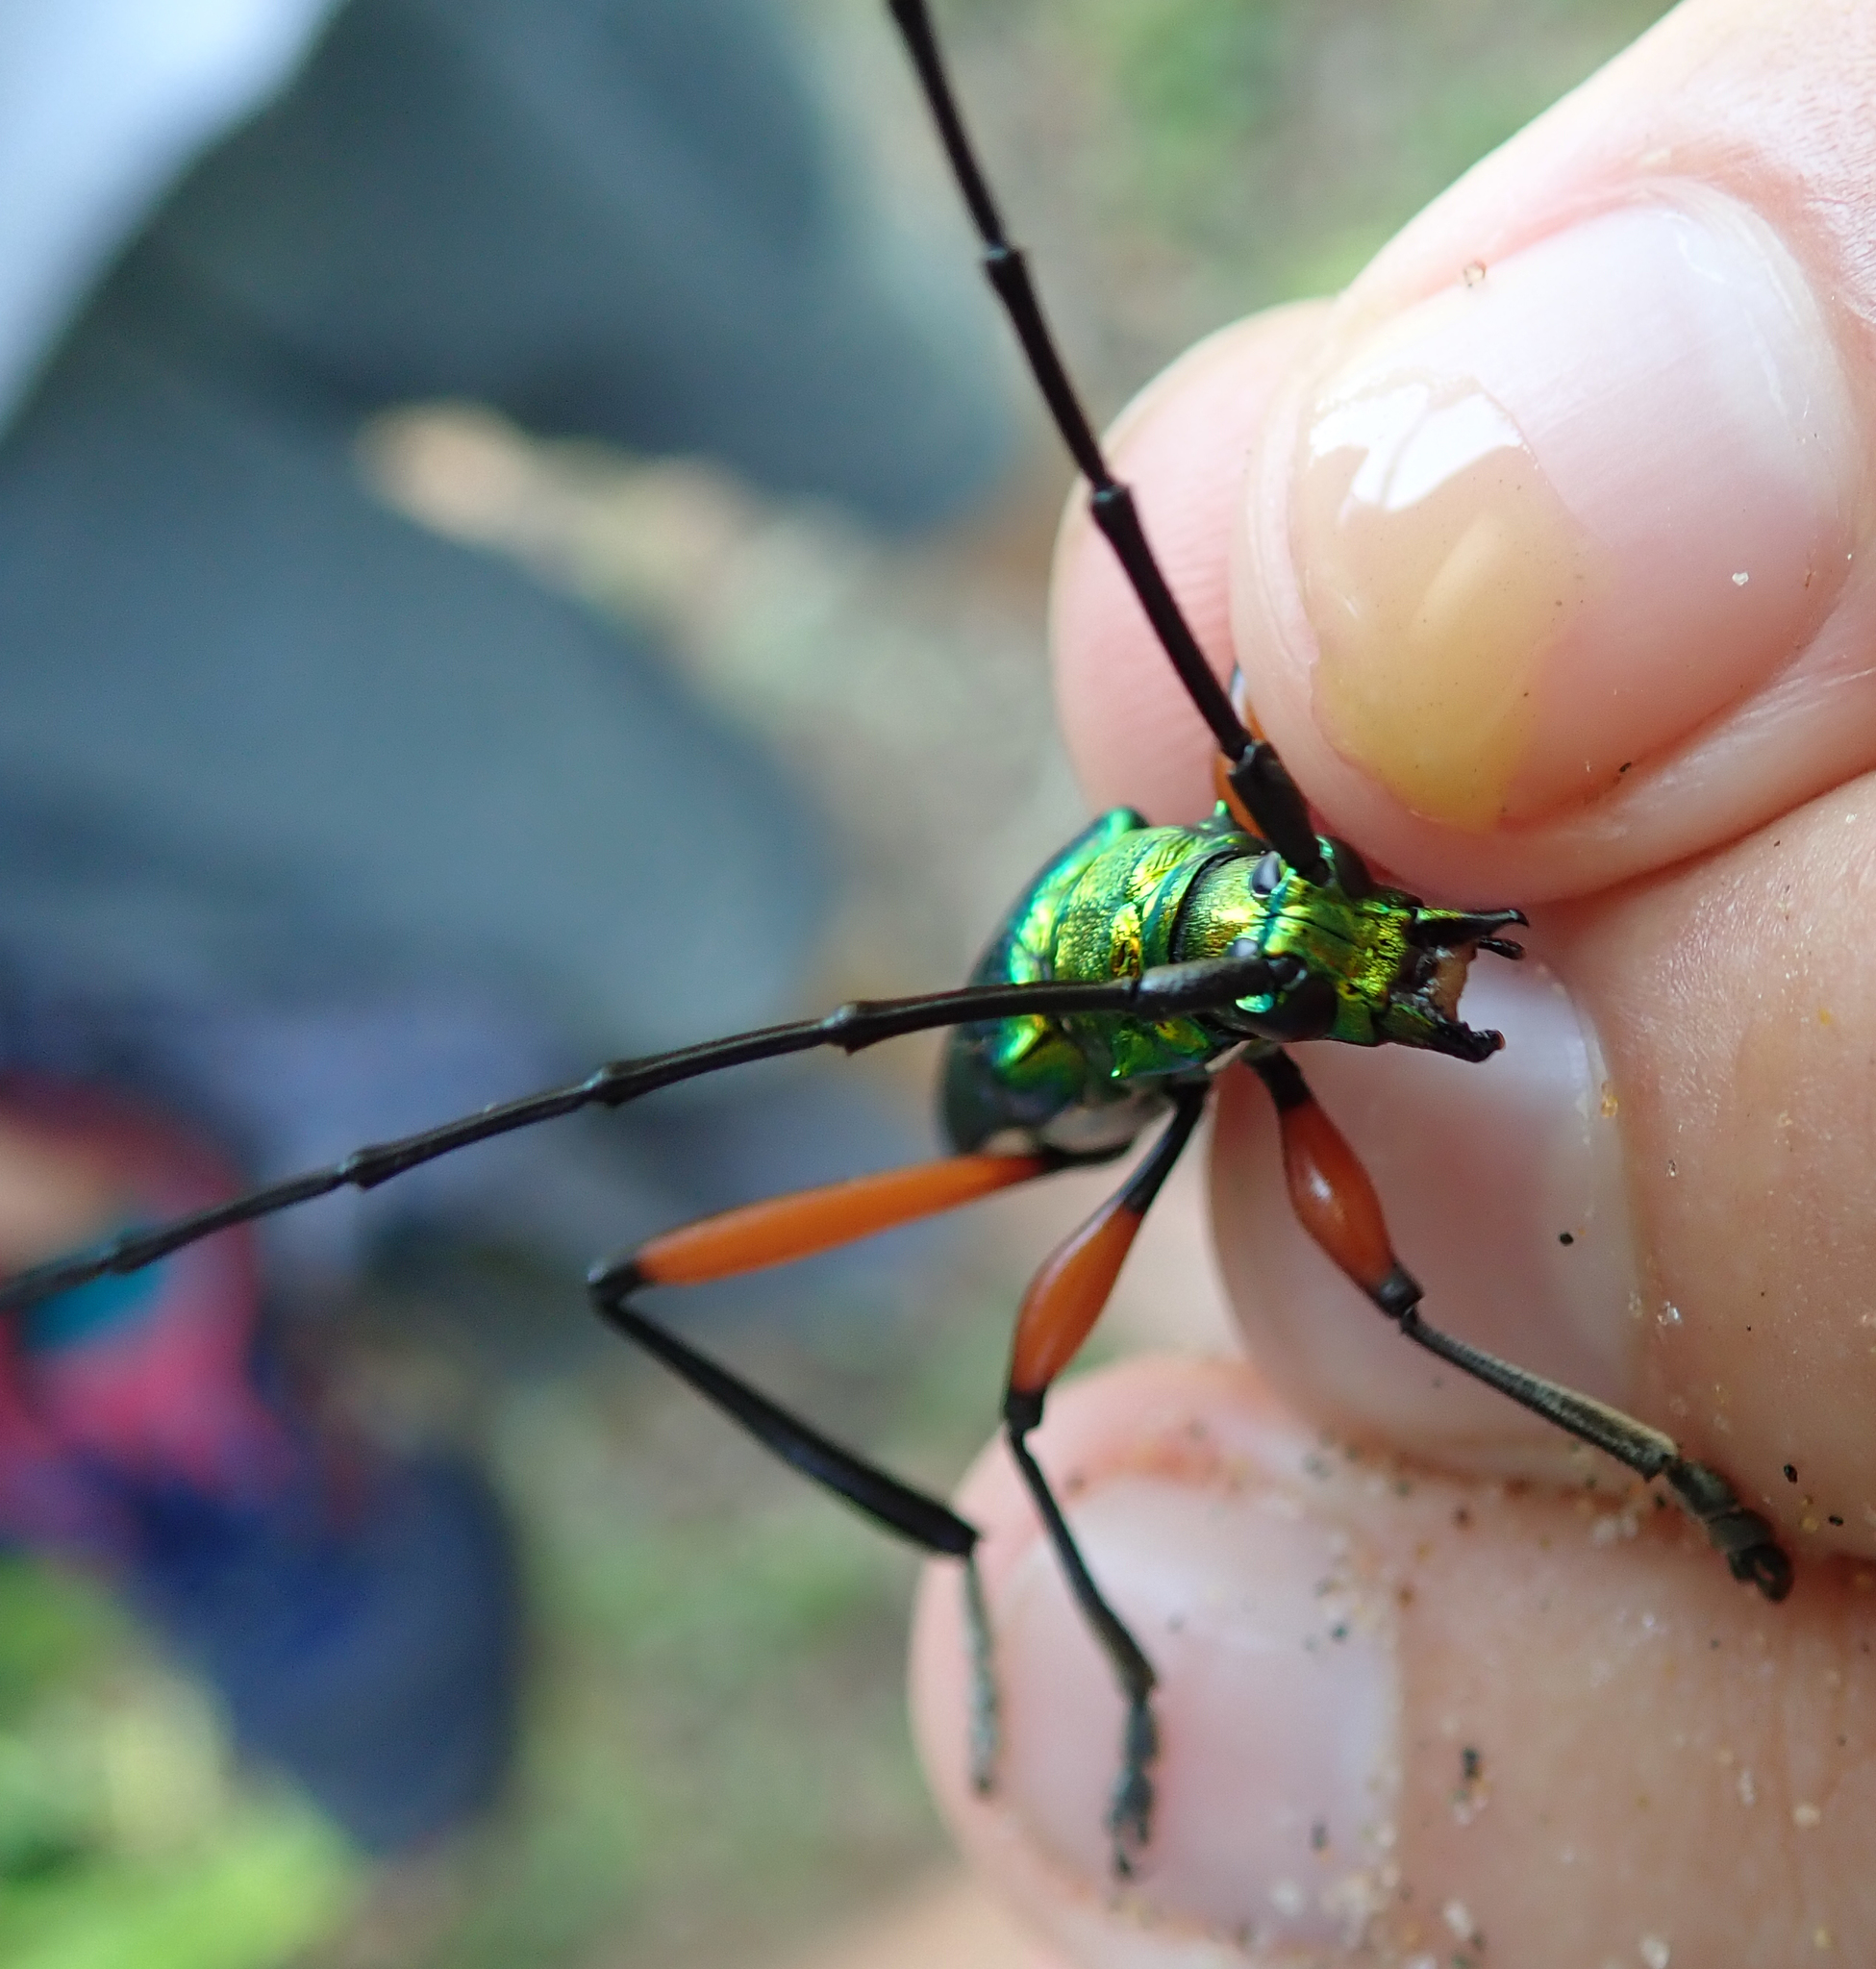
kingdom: Animalia
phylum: Arthropoda
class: Insecta
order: Coleoptera
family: Cerambycidae
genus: Philematium
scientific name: Philematium virens
